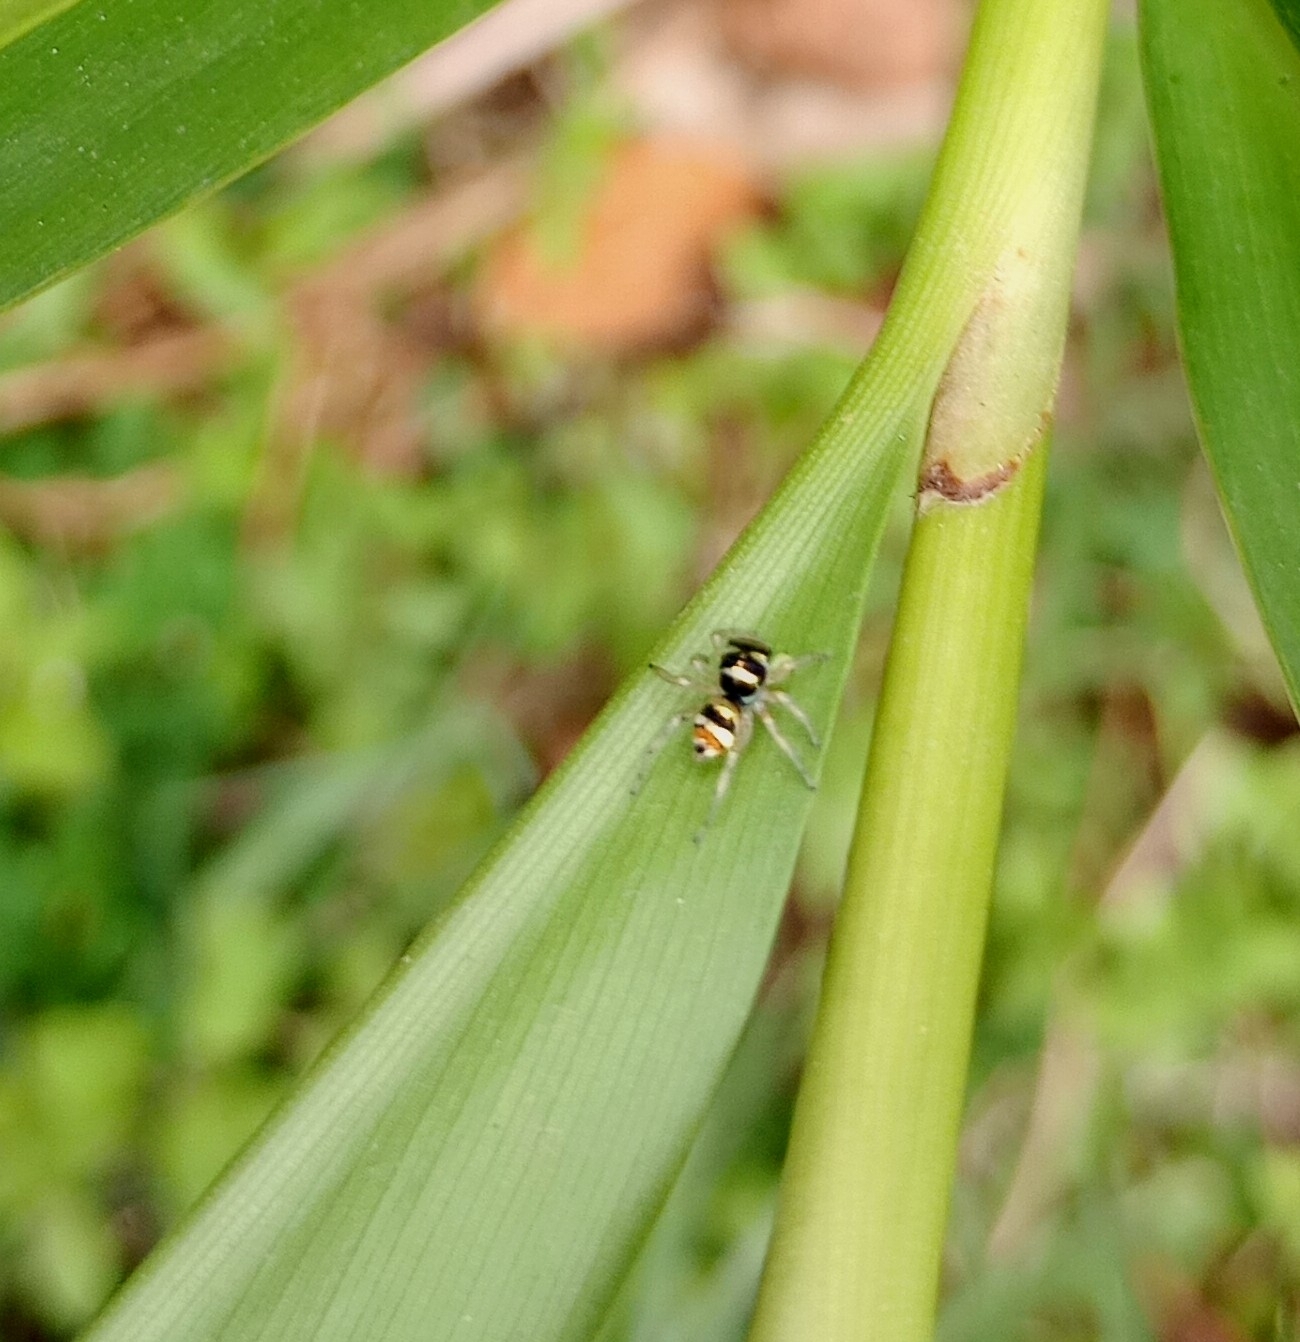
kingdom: Animalia
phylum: Arthropoda
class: Arachnida
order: Araneae
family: Salticidae
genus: Phintella
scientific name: Phintella vittata
